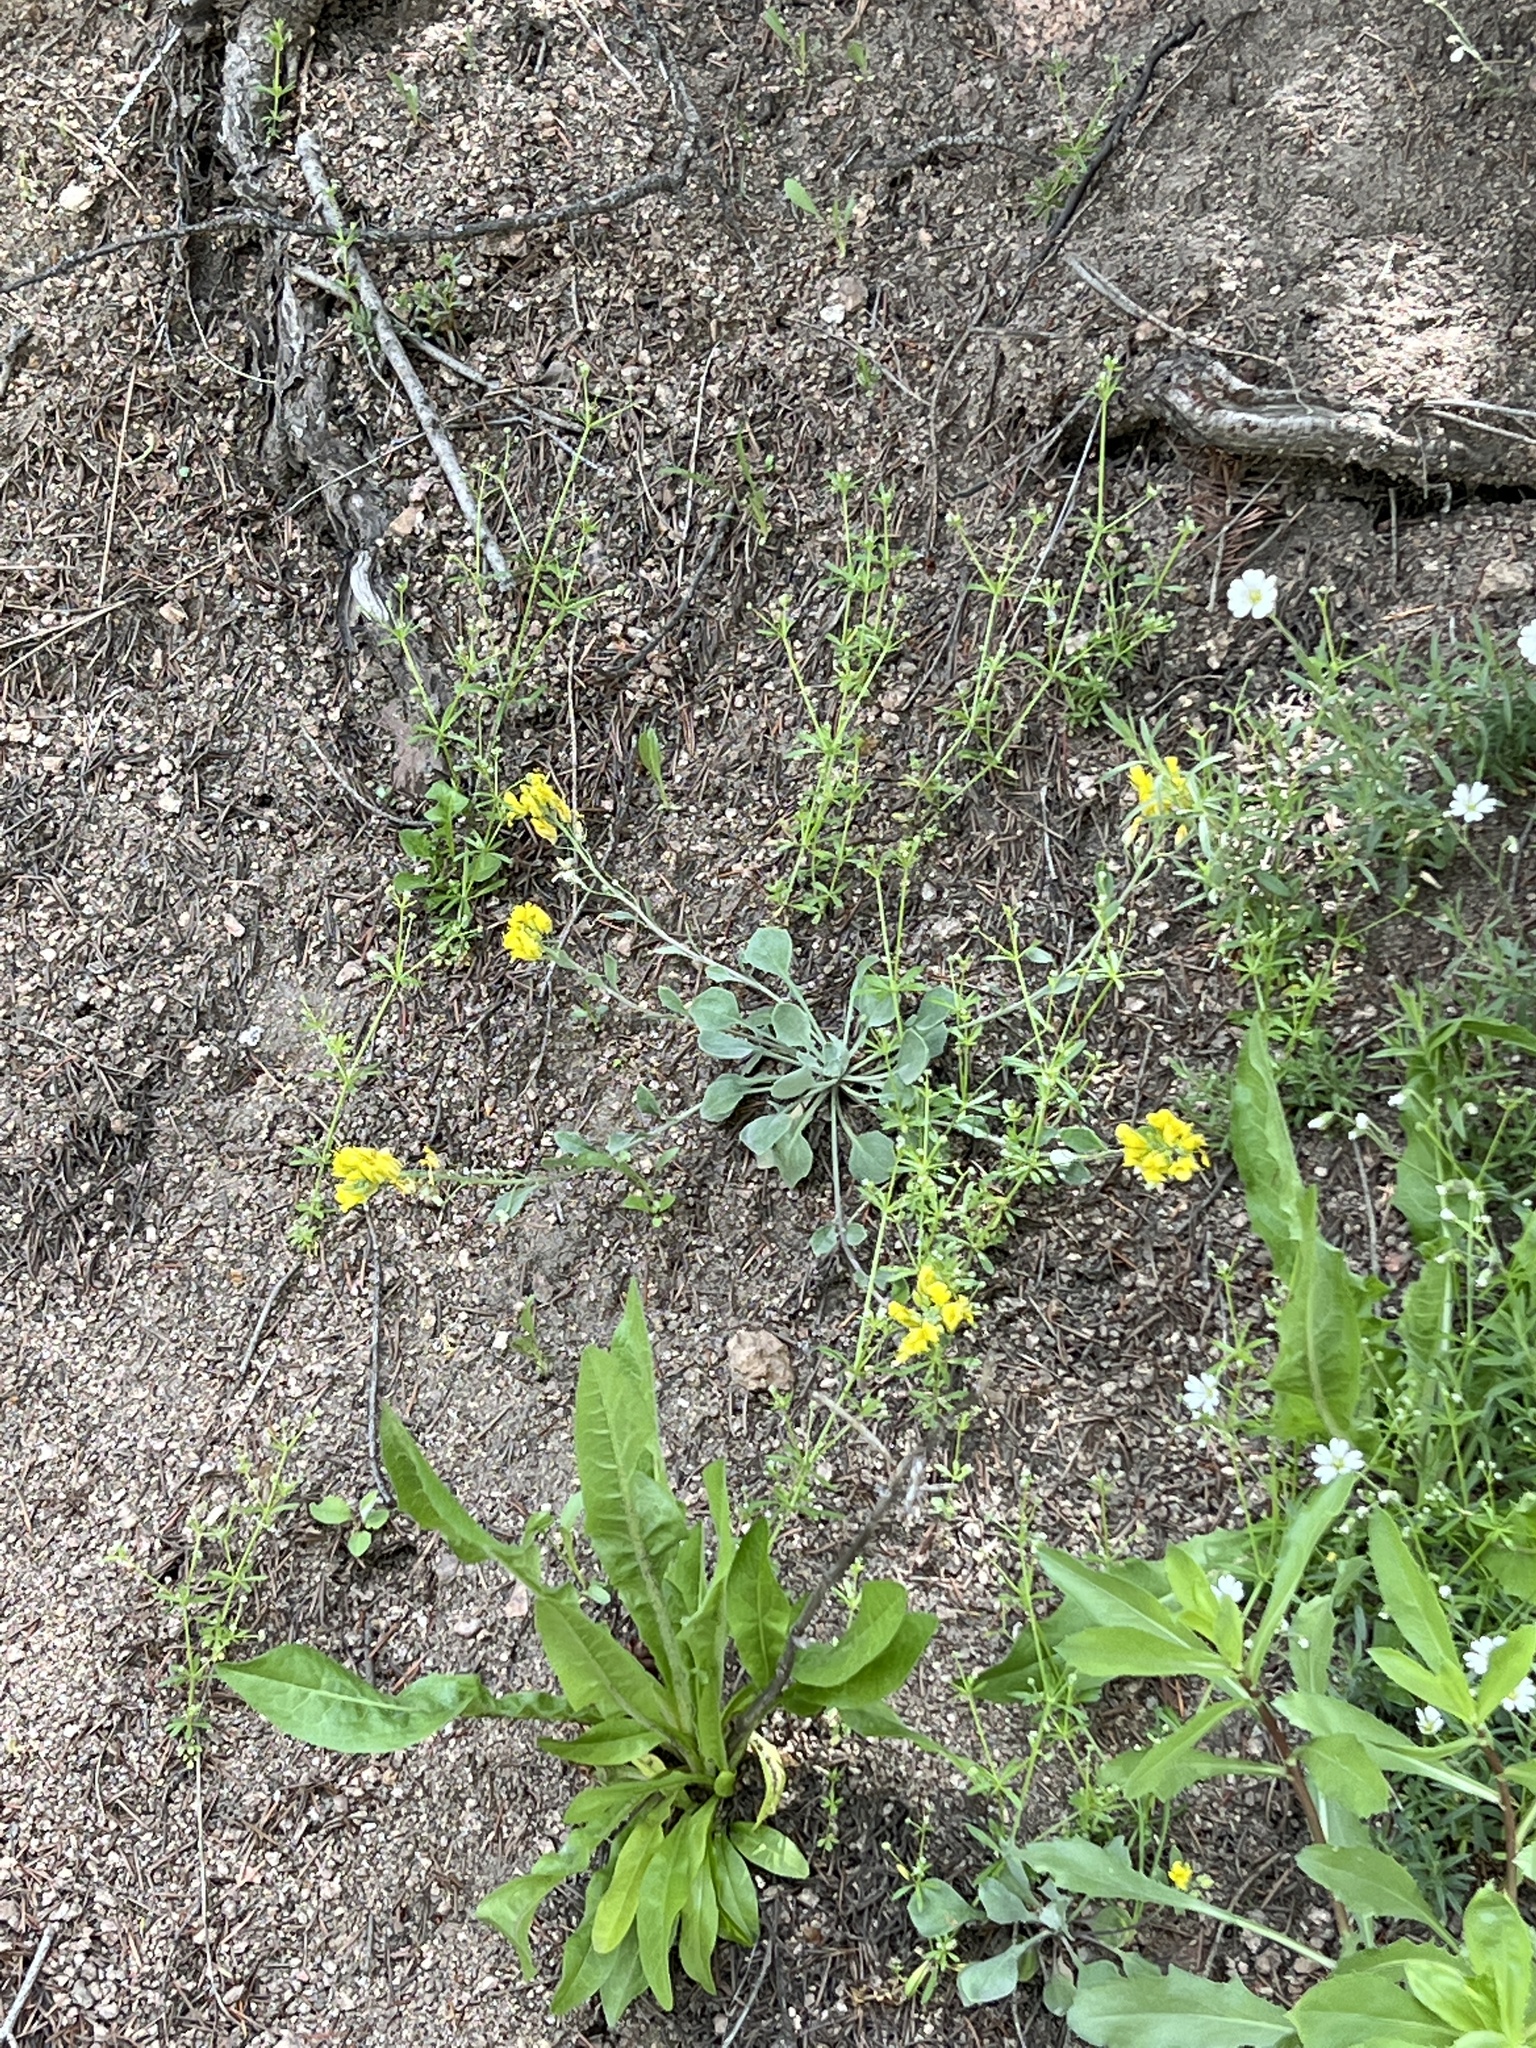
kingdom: Plantae
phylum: Tracheophyta
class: Magnoliopsida
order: Brassicales
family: Brassicaceae
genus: Physaria
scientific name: Physaria vitulifera
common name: Roundtrip twinpod
